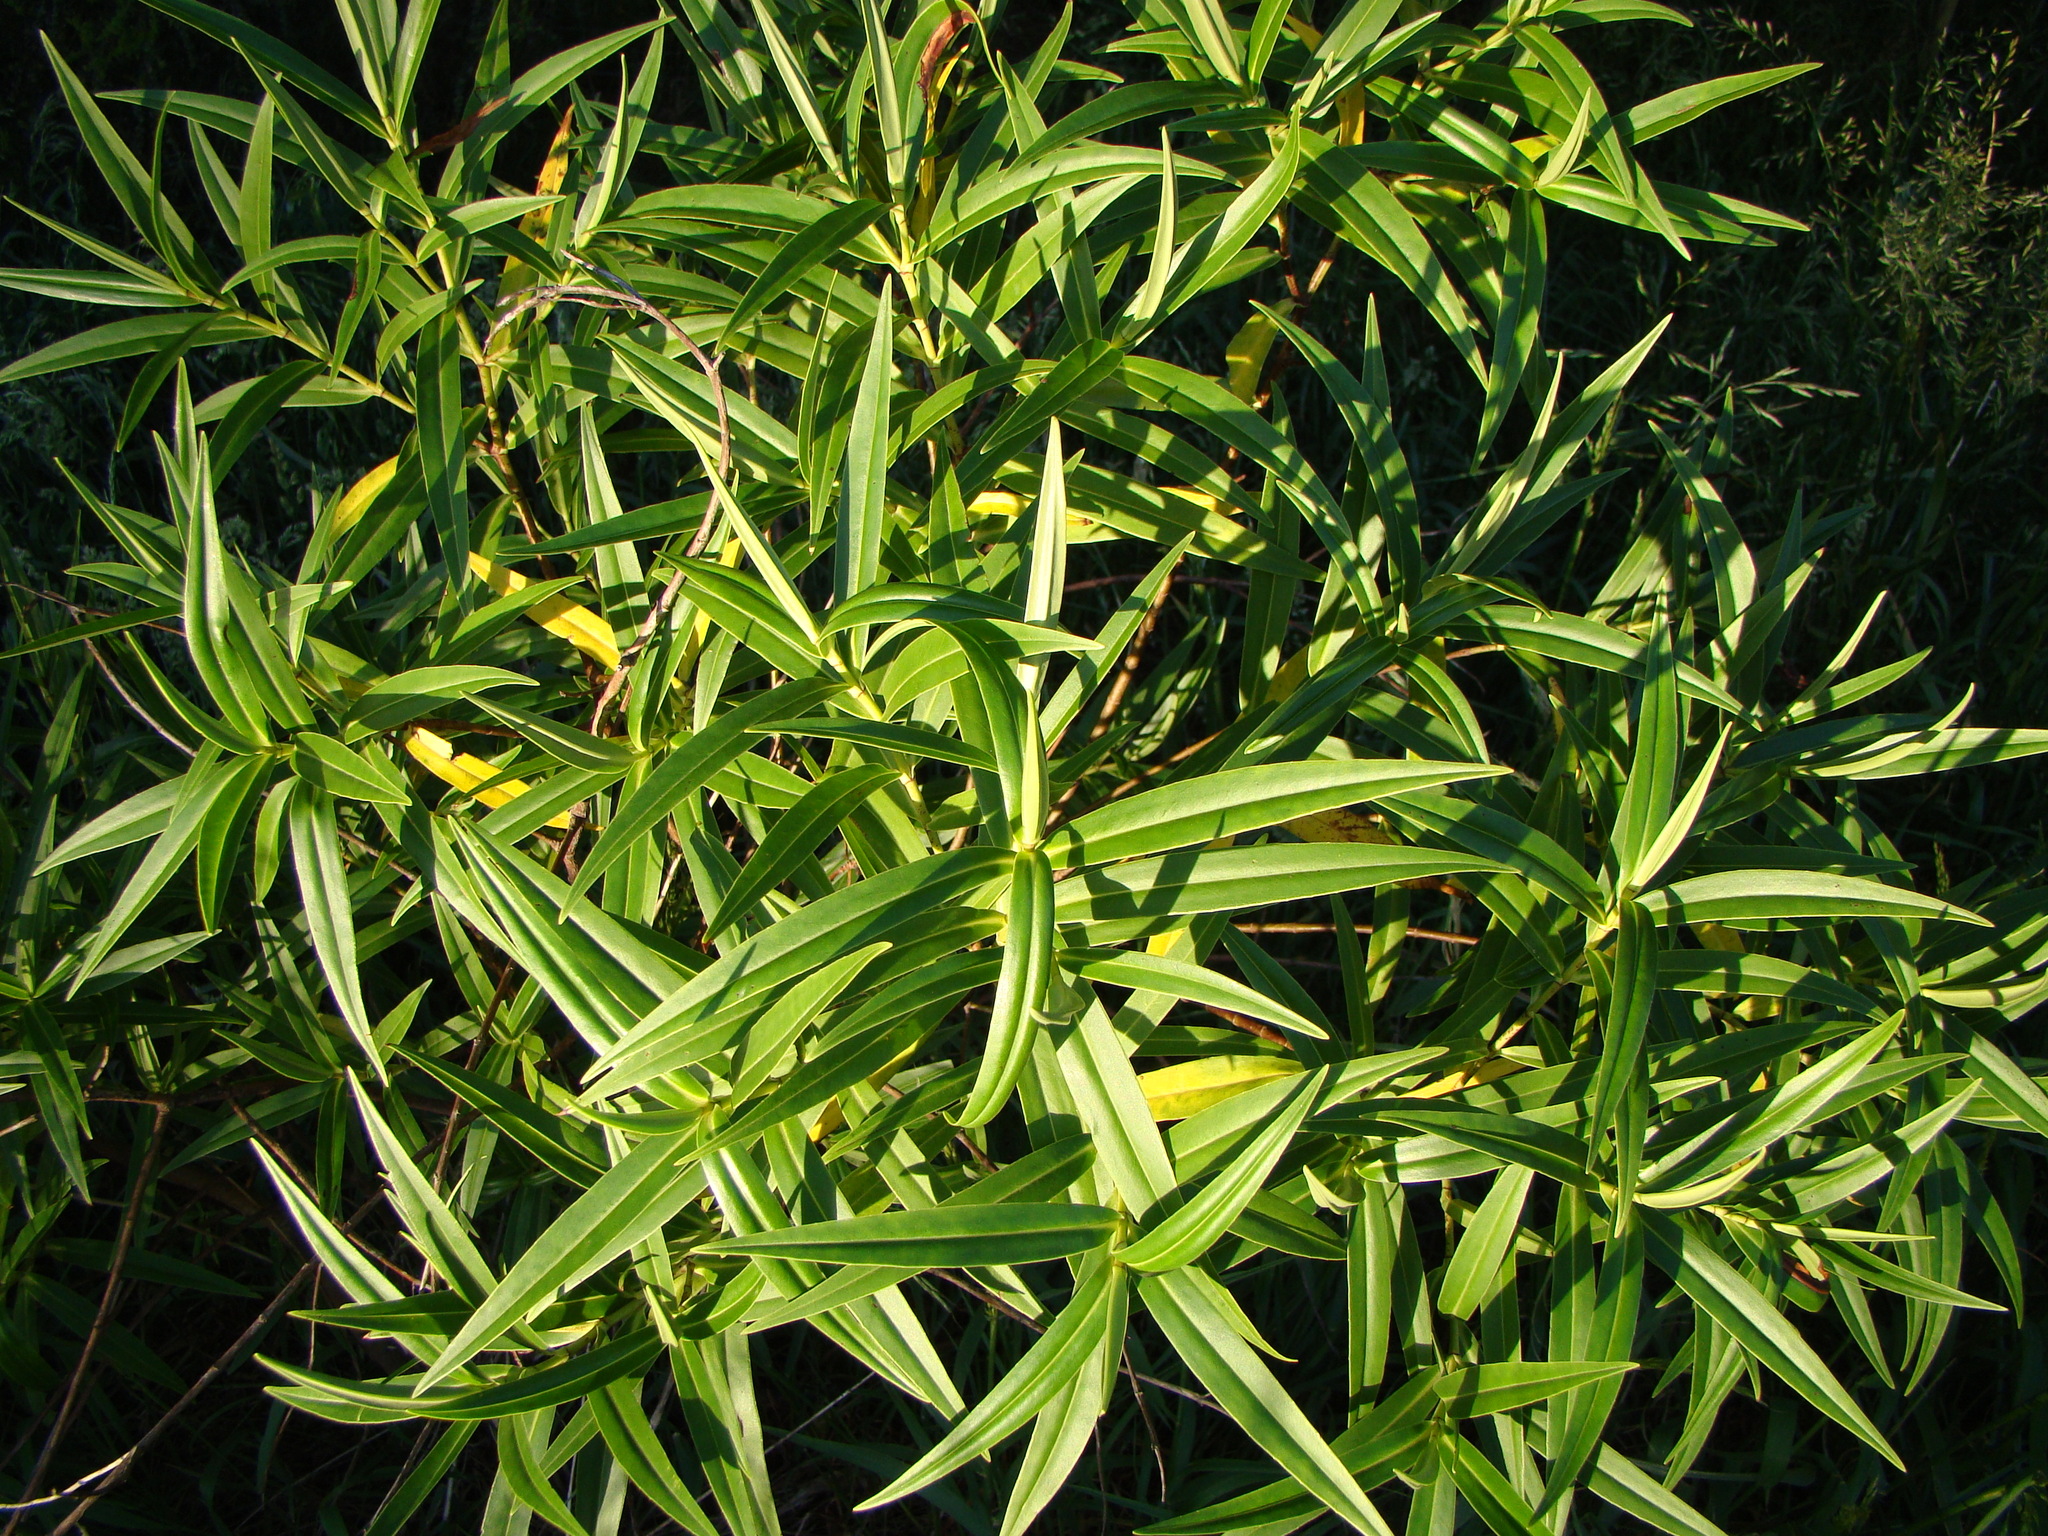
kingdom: Plantae
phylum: Tracheophyta
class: Magnoliopsida
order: Lamiales
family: Plantaginaceae
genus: Veronica
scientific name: Veronica stricta
